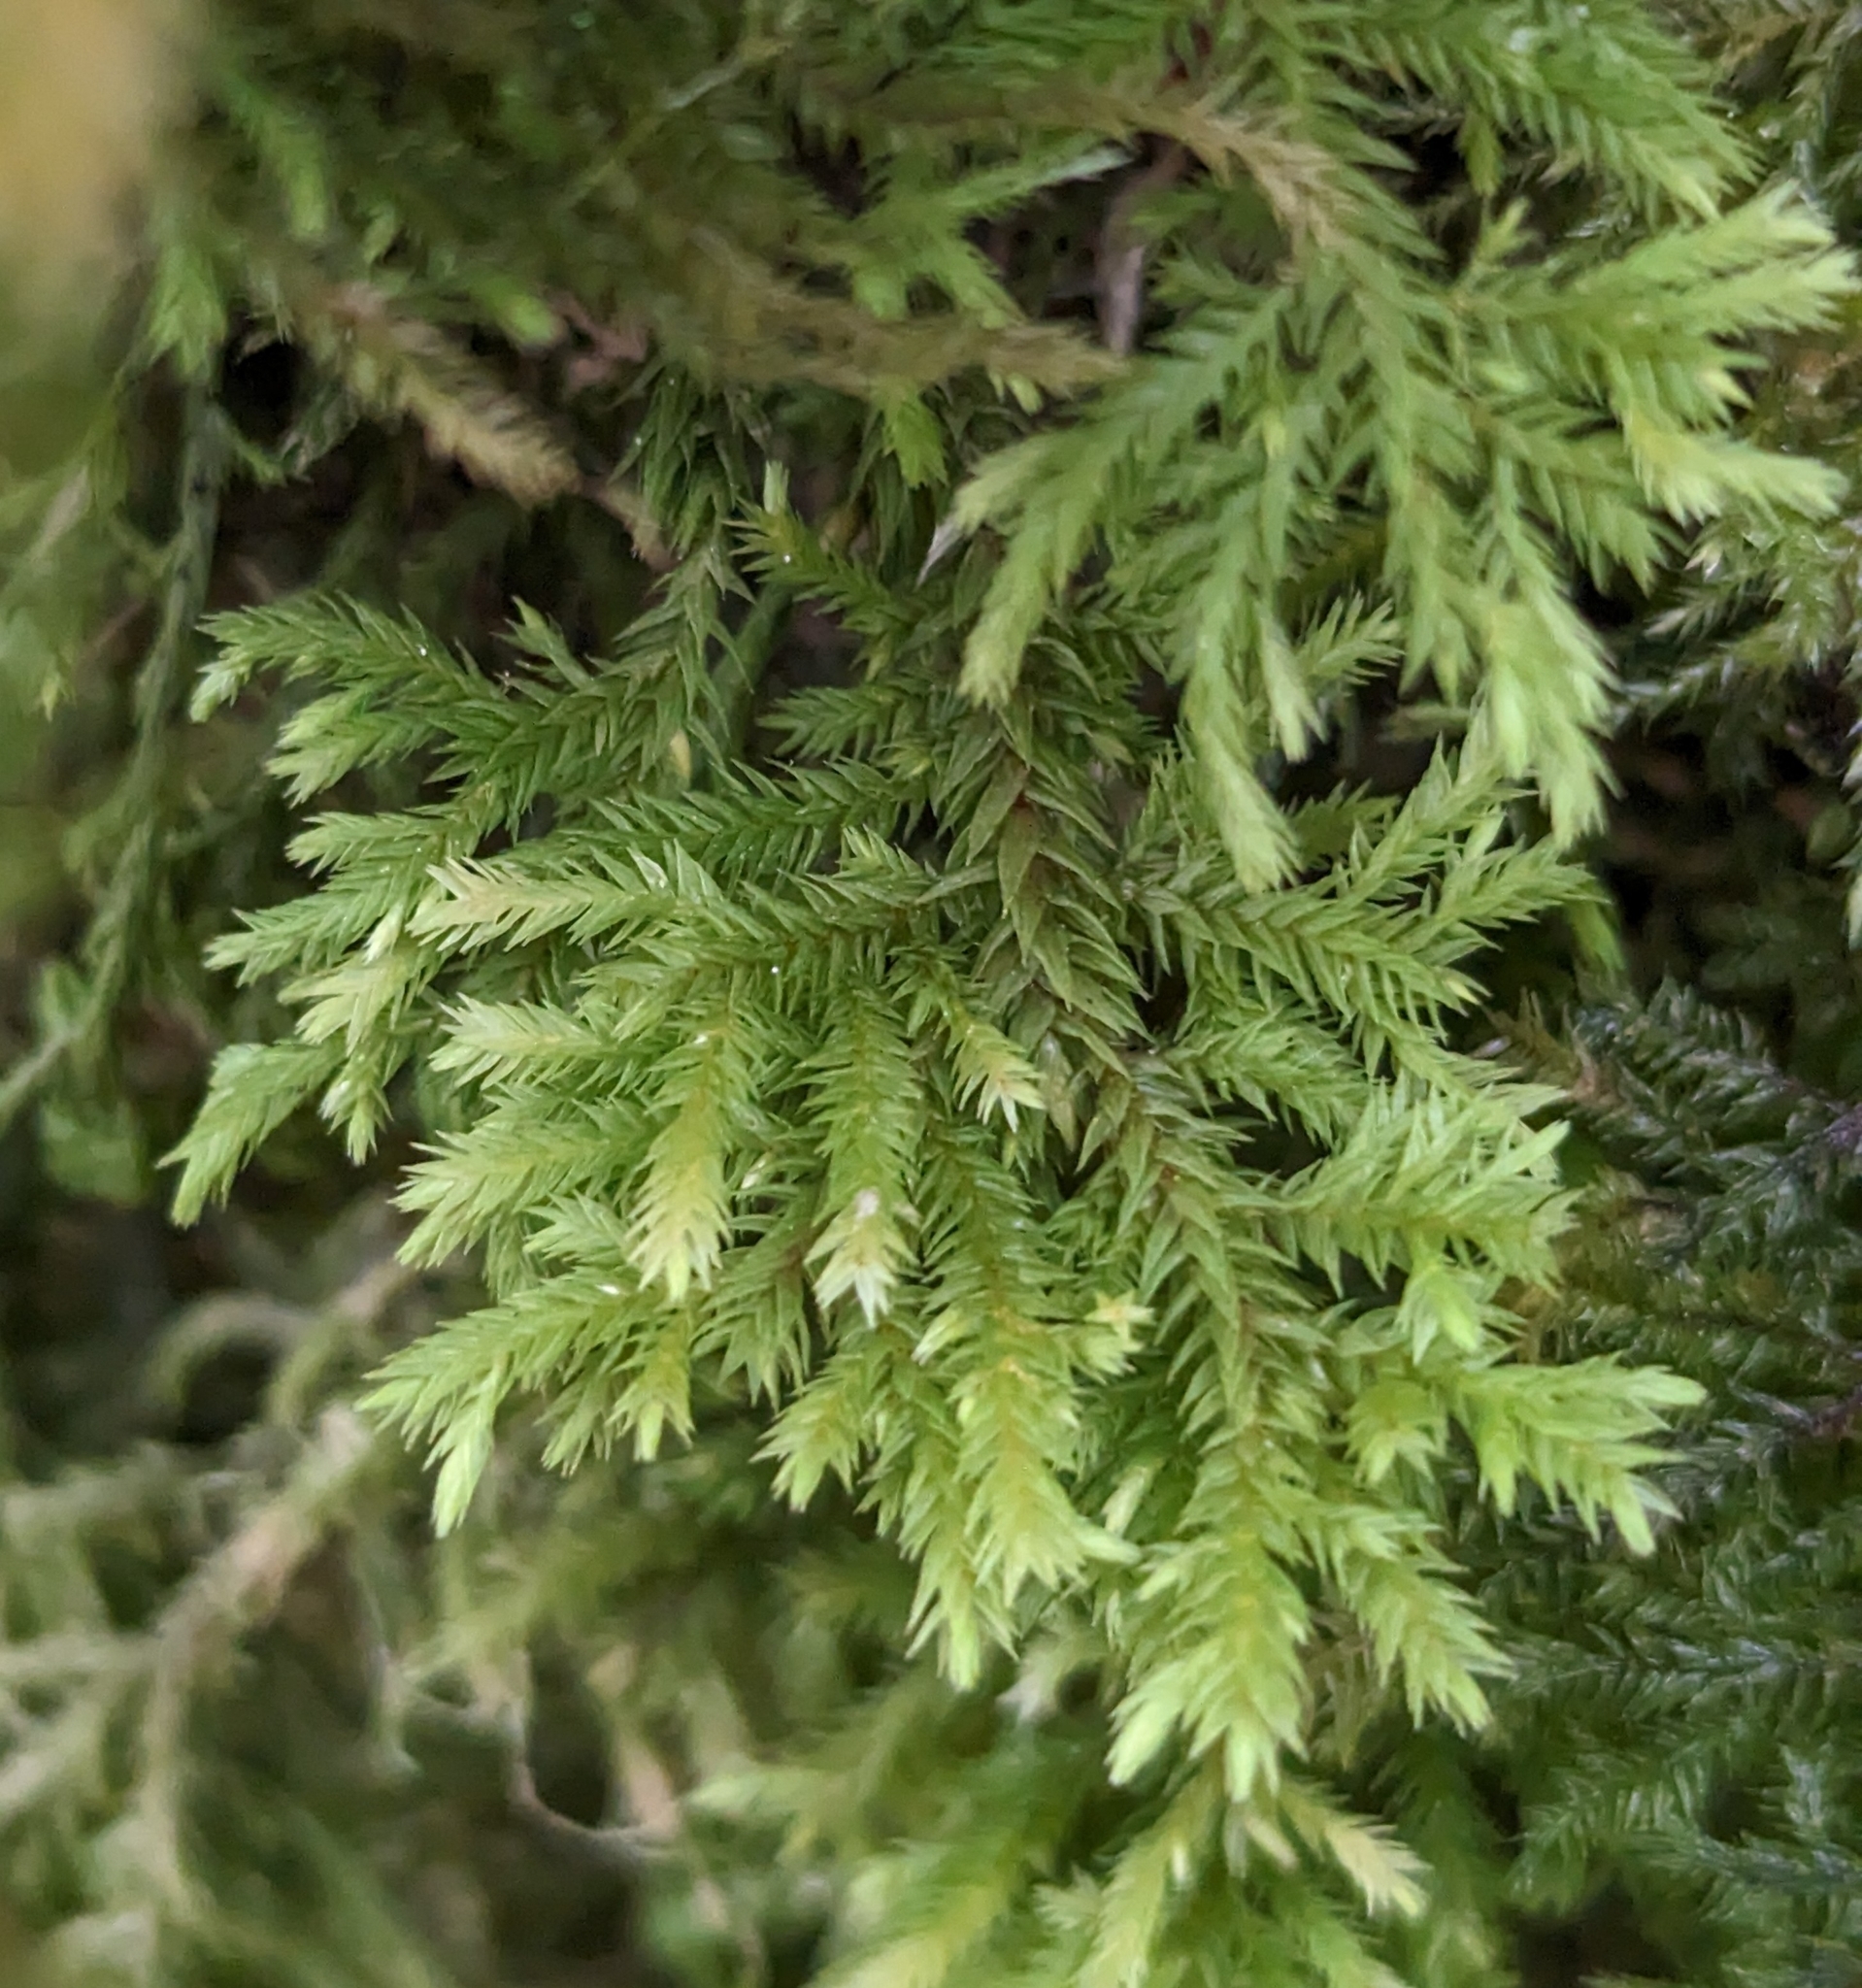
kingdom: Plantae
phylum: Bryophyta
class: Bryopsida
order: Hypnales
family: Cryphaeaceae
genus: Dendroalsia
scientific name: Dendroalsia abietina
